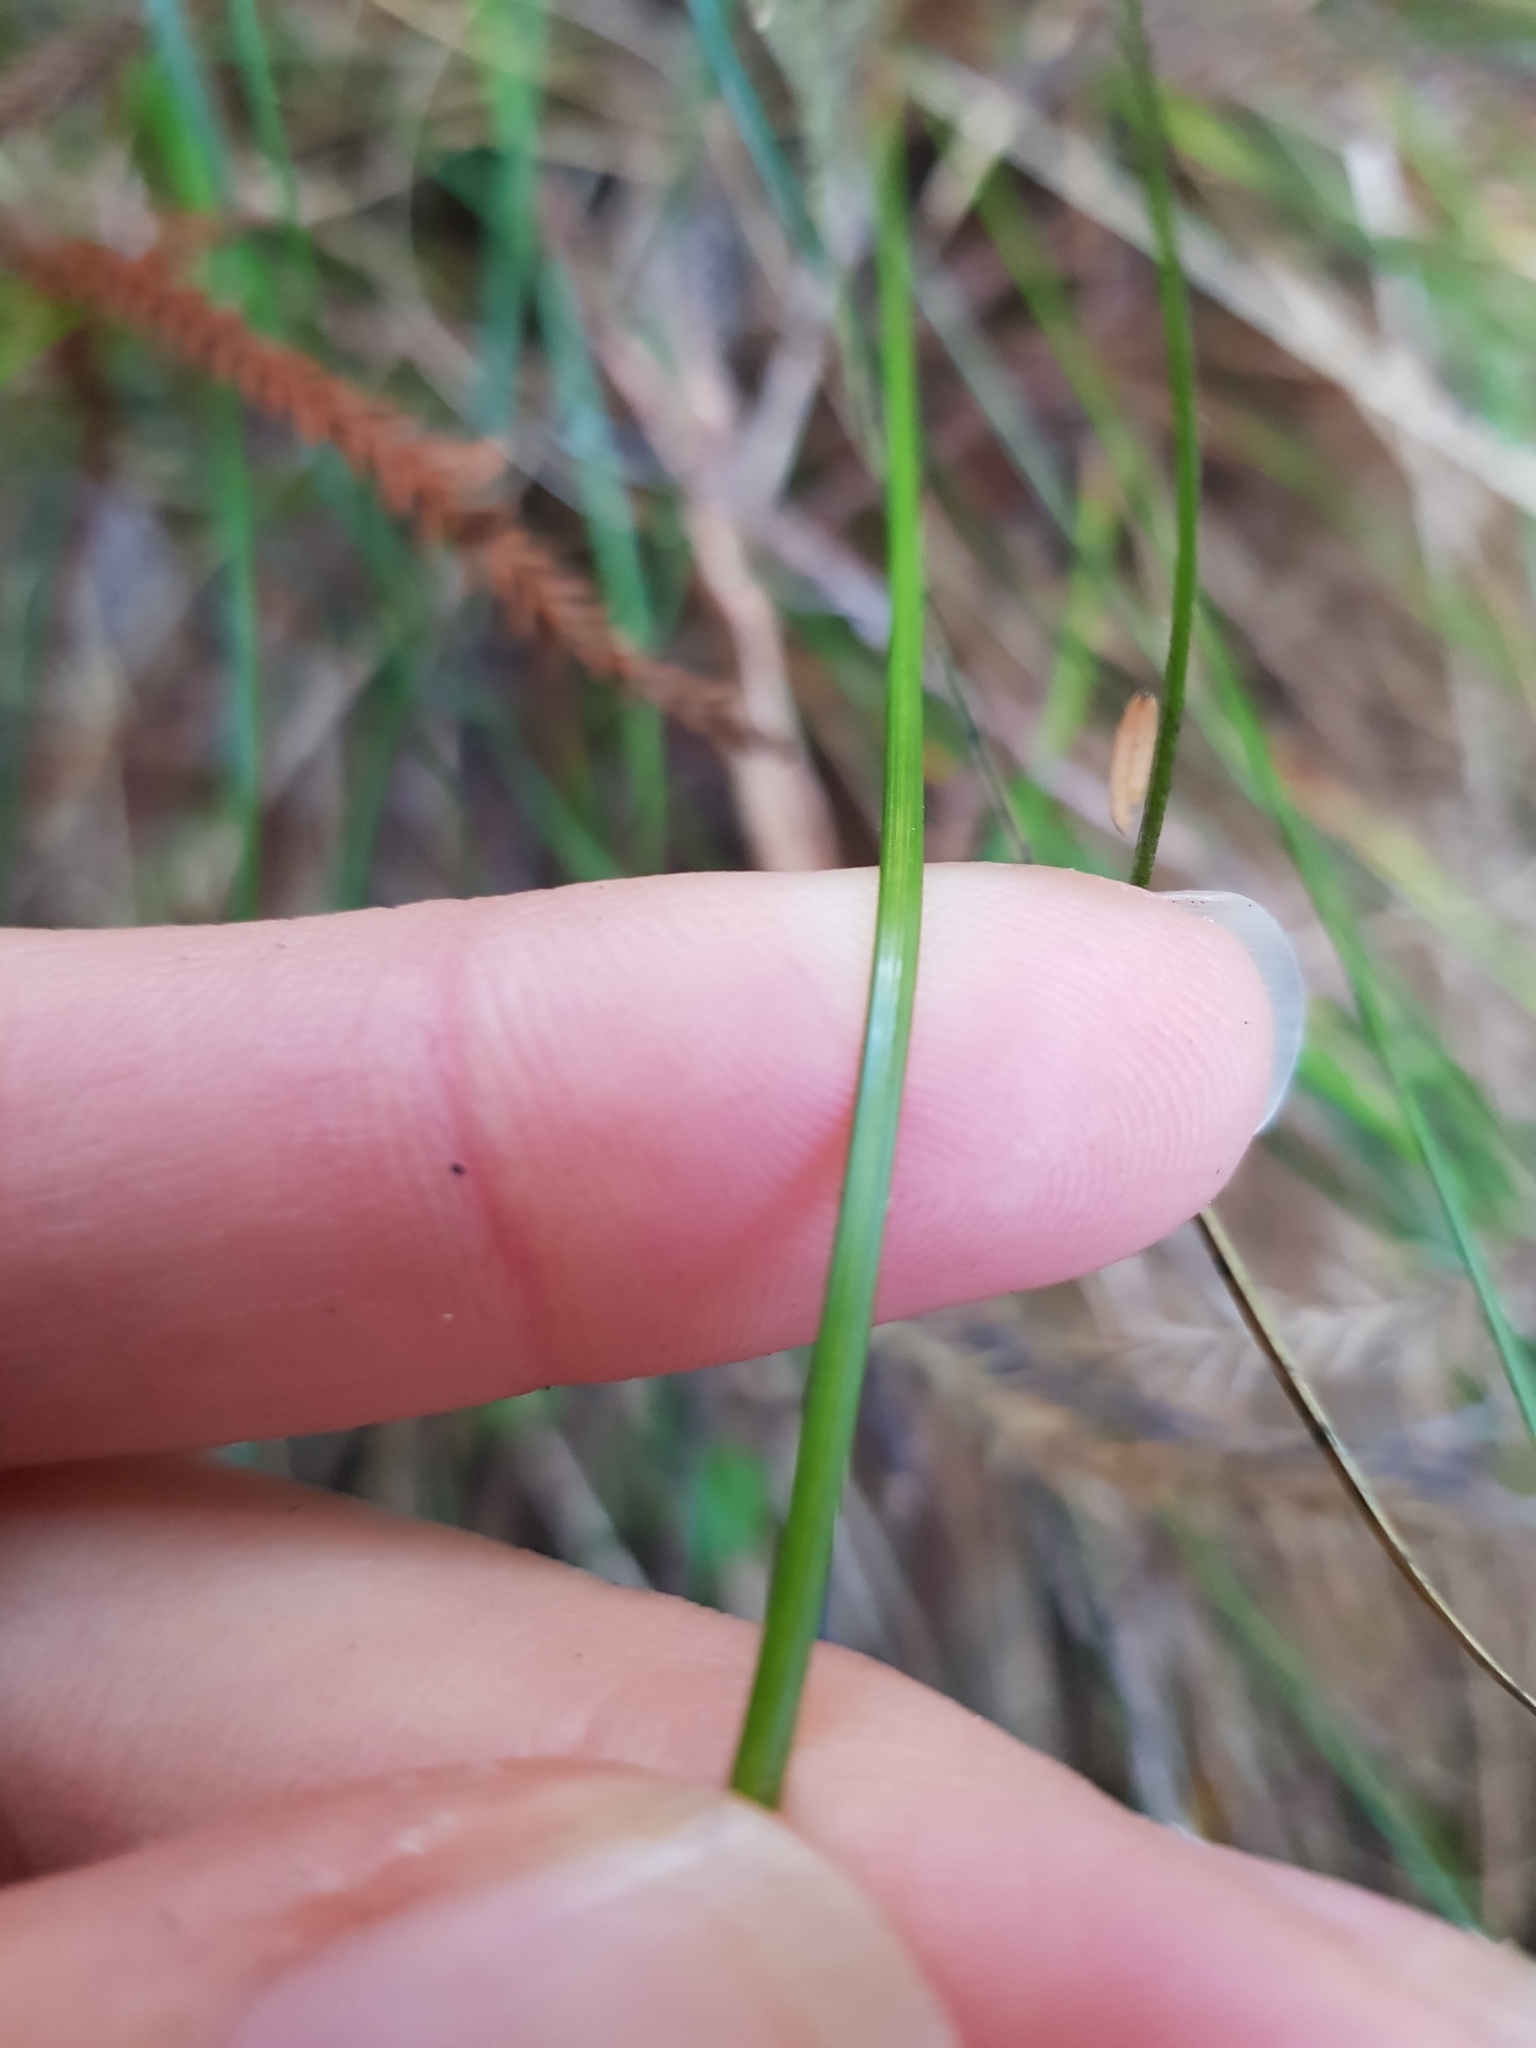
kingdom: Plantae
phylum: Tracheophyta
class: Liliopsida
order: Poales
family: Cyperaceae
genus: Carex
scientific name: Carex banksiana
